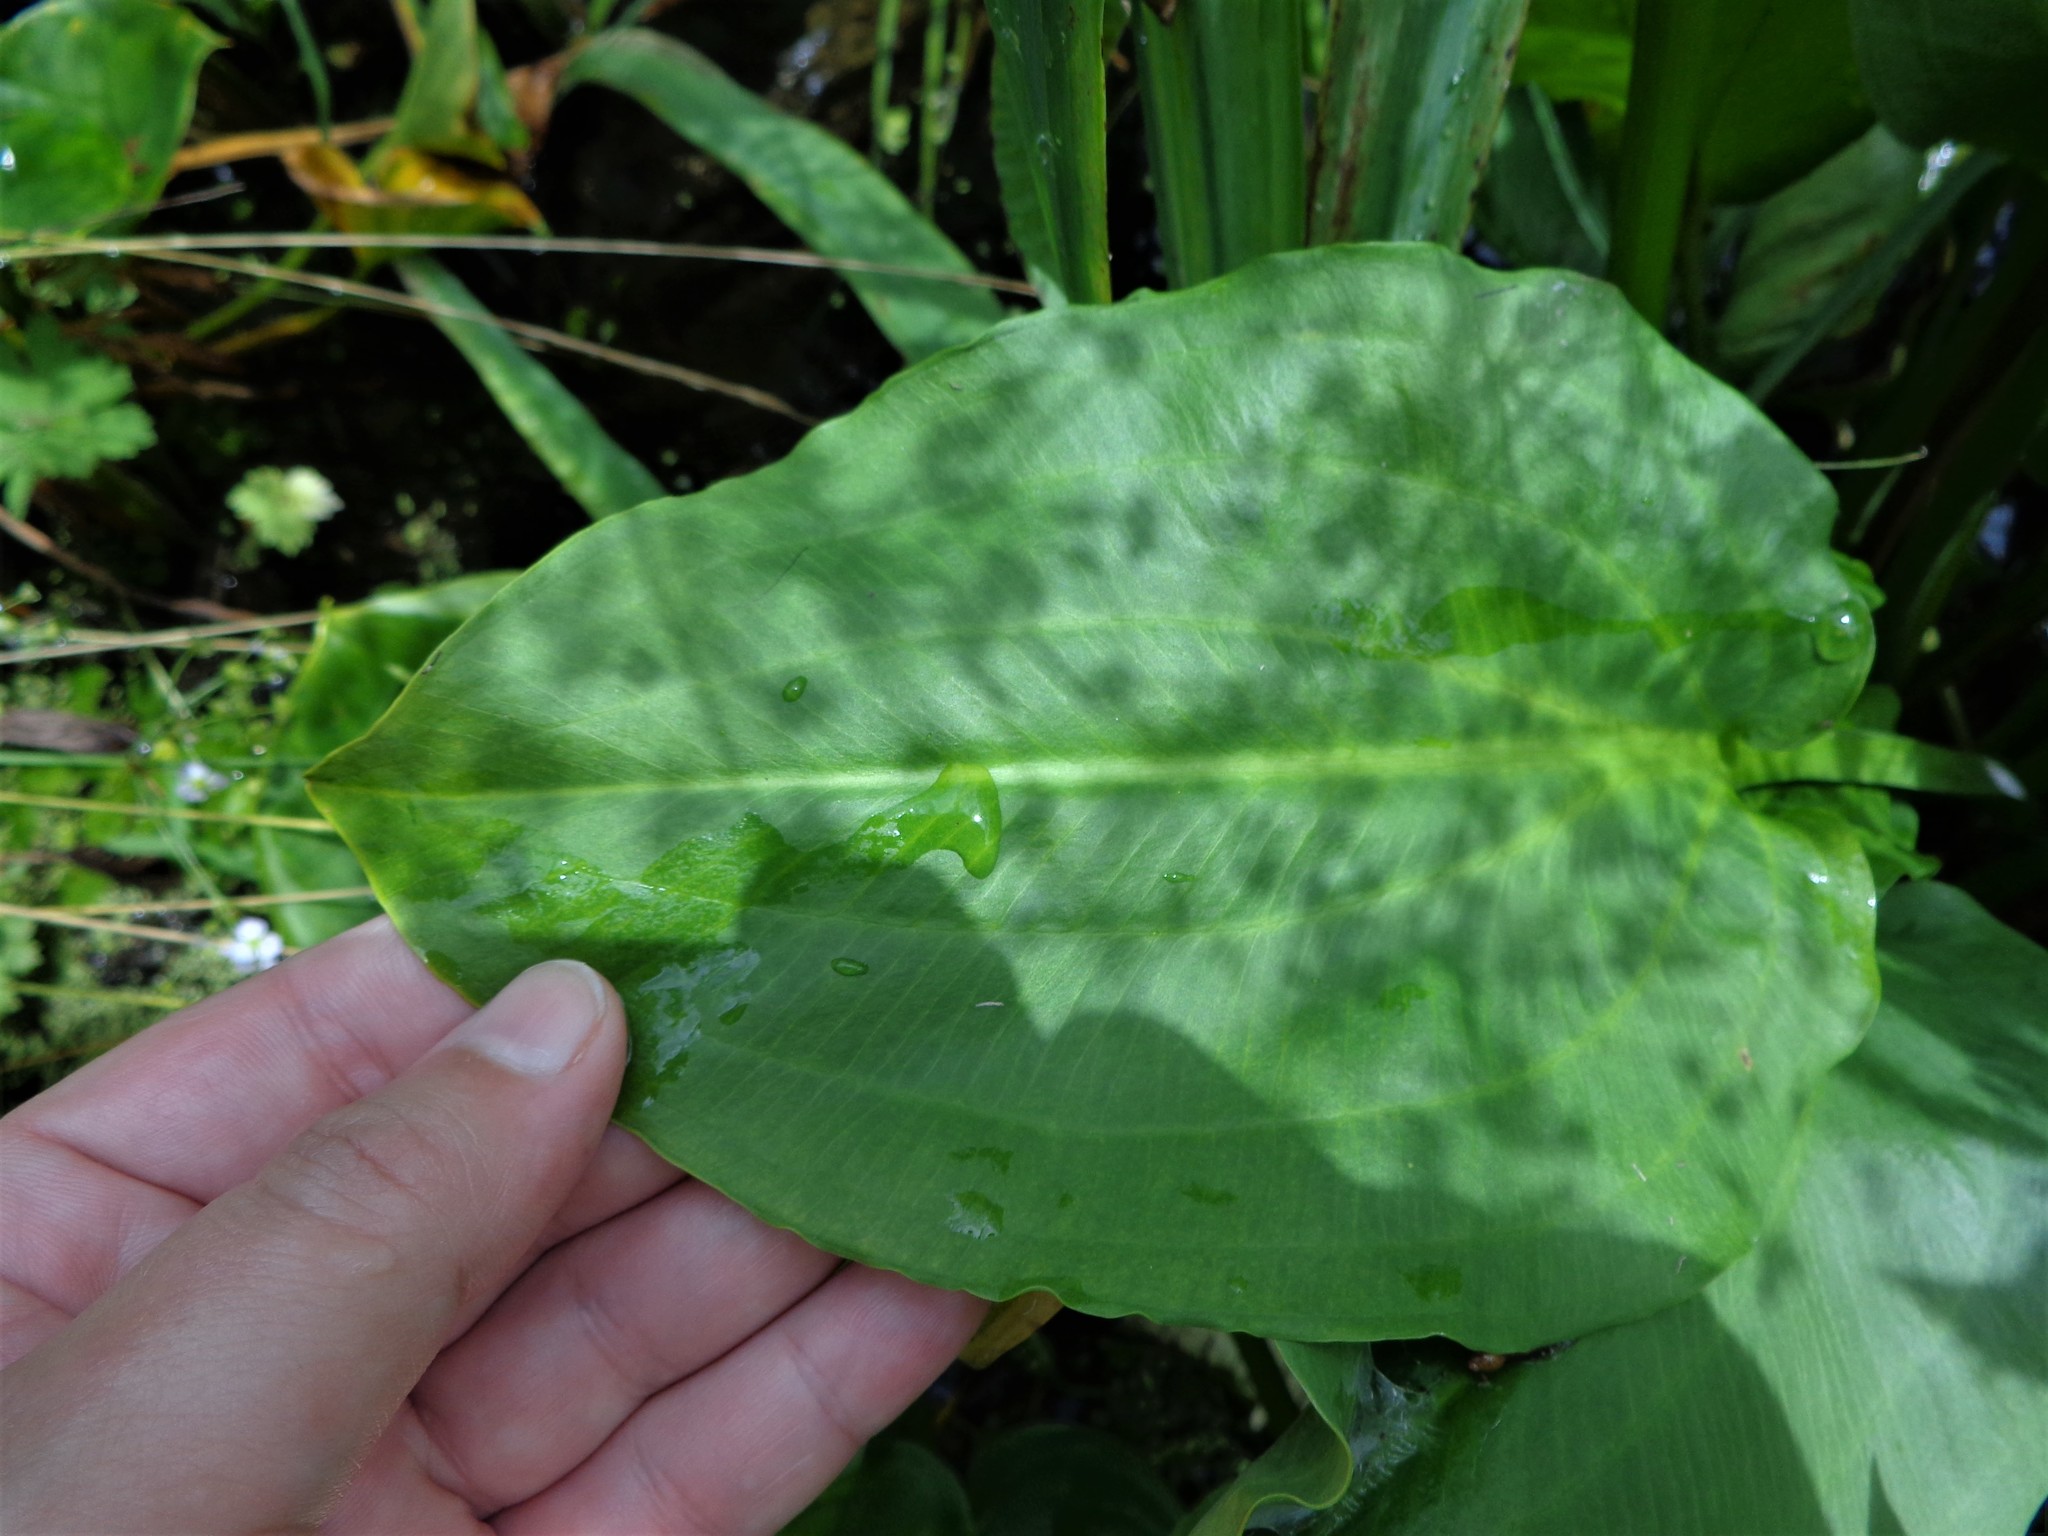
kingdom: Plantae
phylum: Tracheophyta
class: Liliopsida
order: Alismatales
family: Alismataceae
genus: Alisma
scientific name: Alisma plantago-aquatica
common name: Water-plantain
